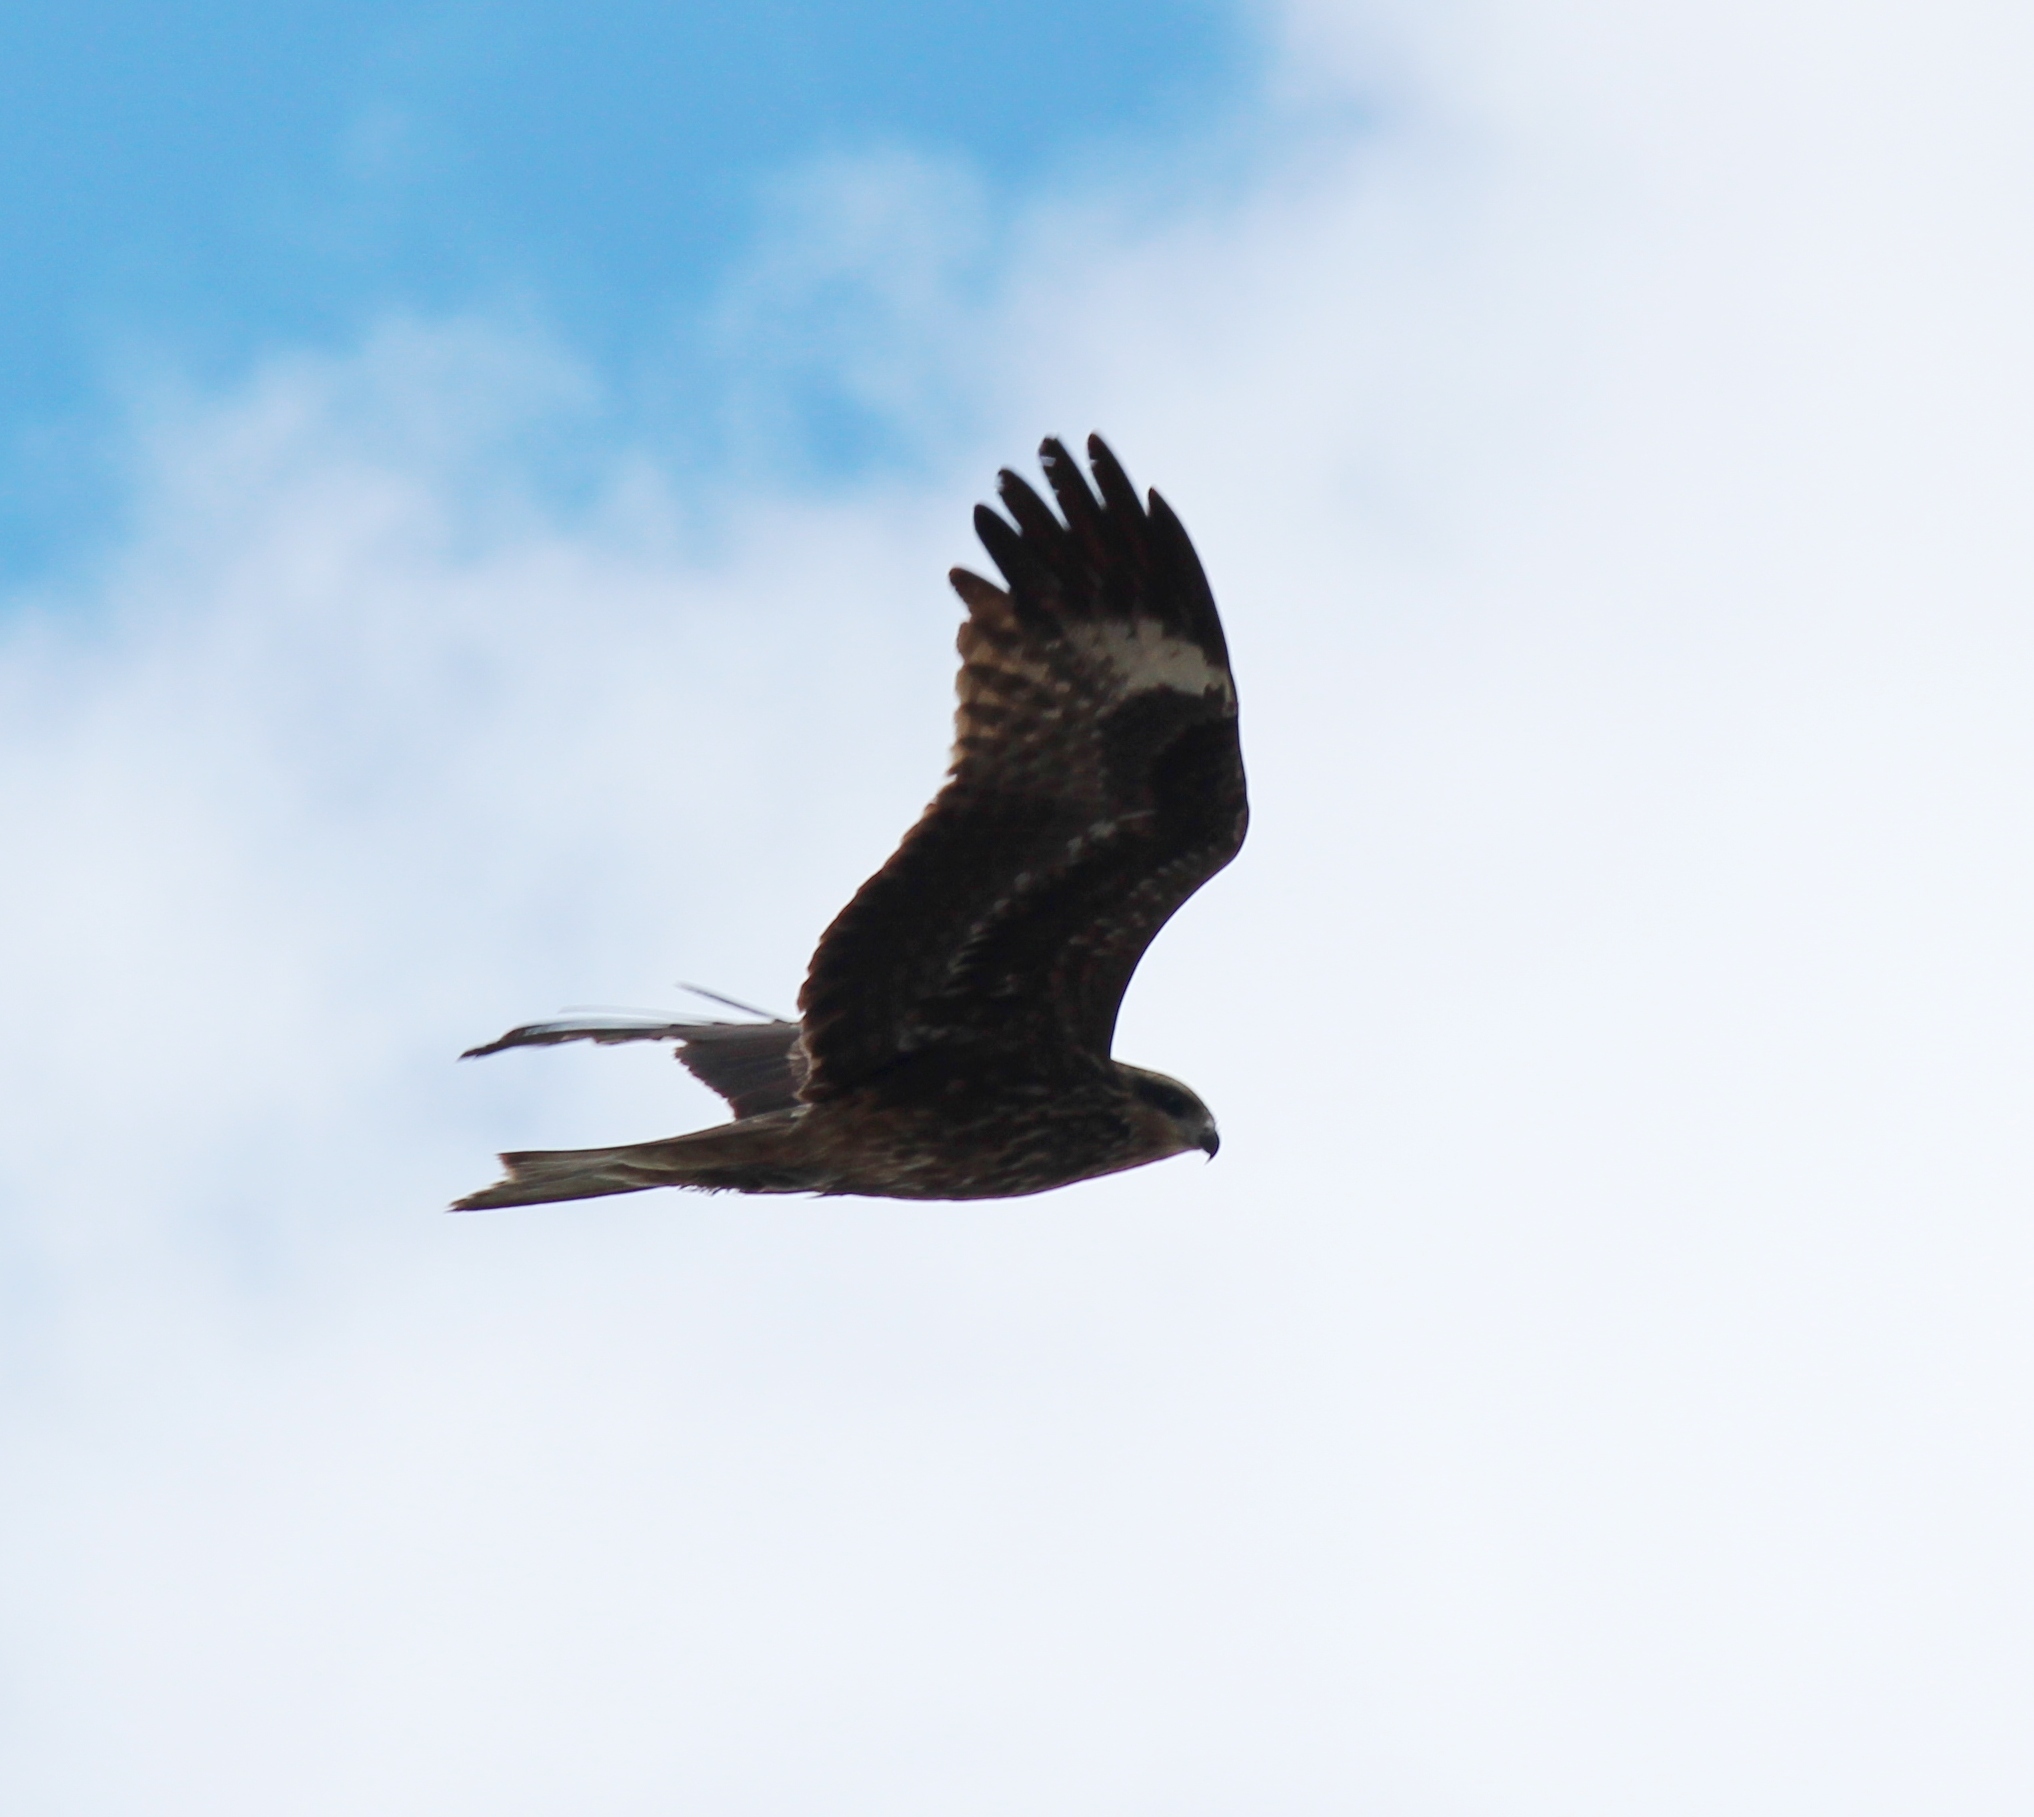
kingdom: Animalia
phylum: Chordata
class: Aves
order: Accipitriformes
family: Accipitridae
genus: Milvus
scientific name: Milvus migrans
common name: Black kite
